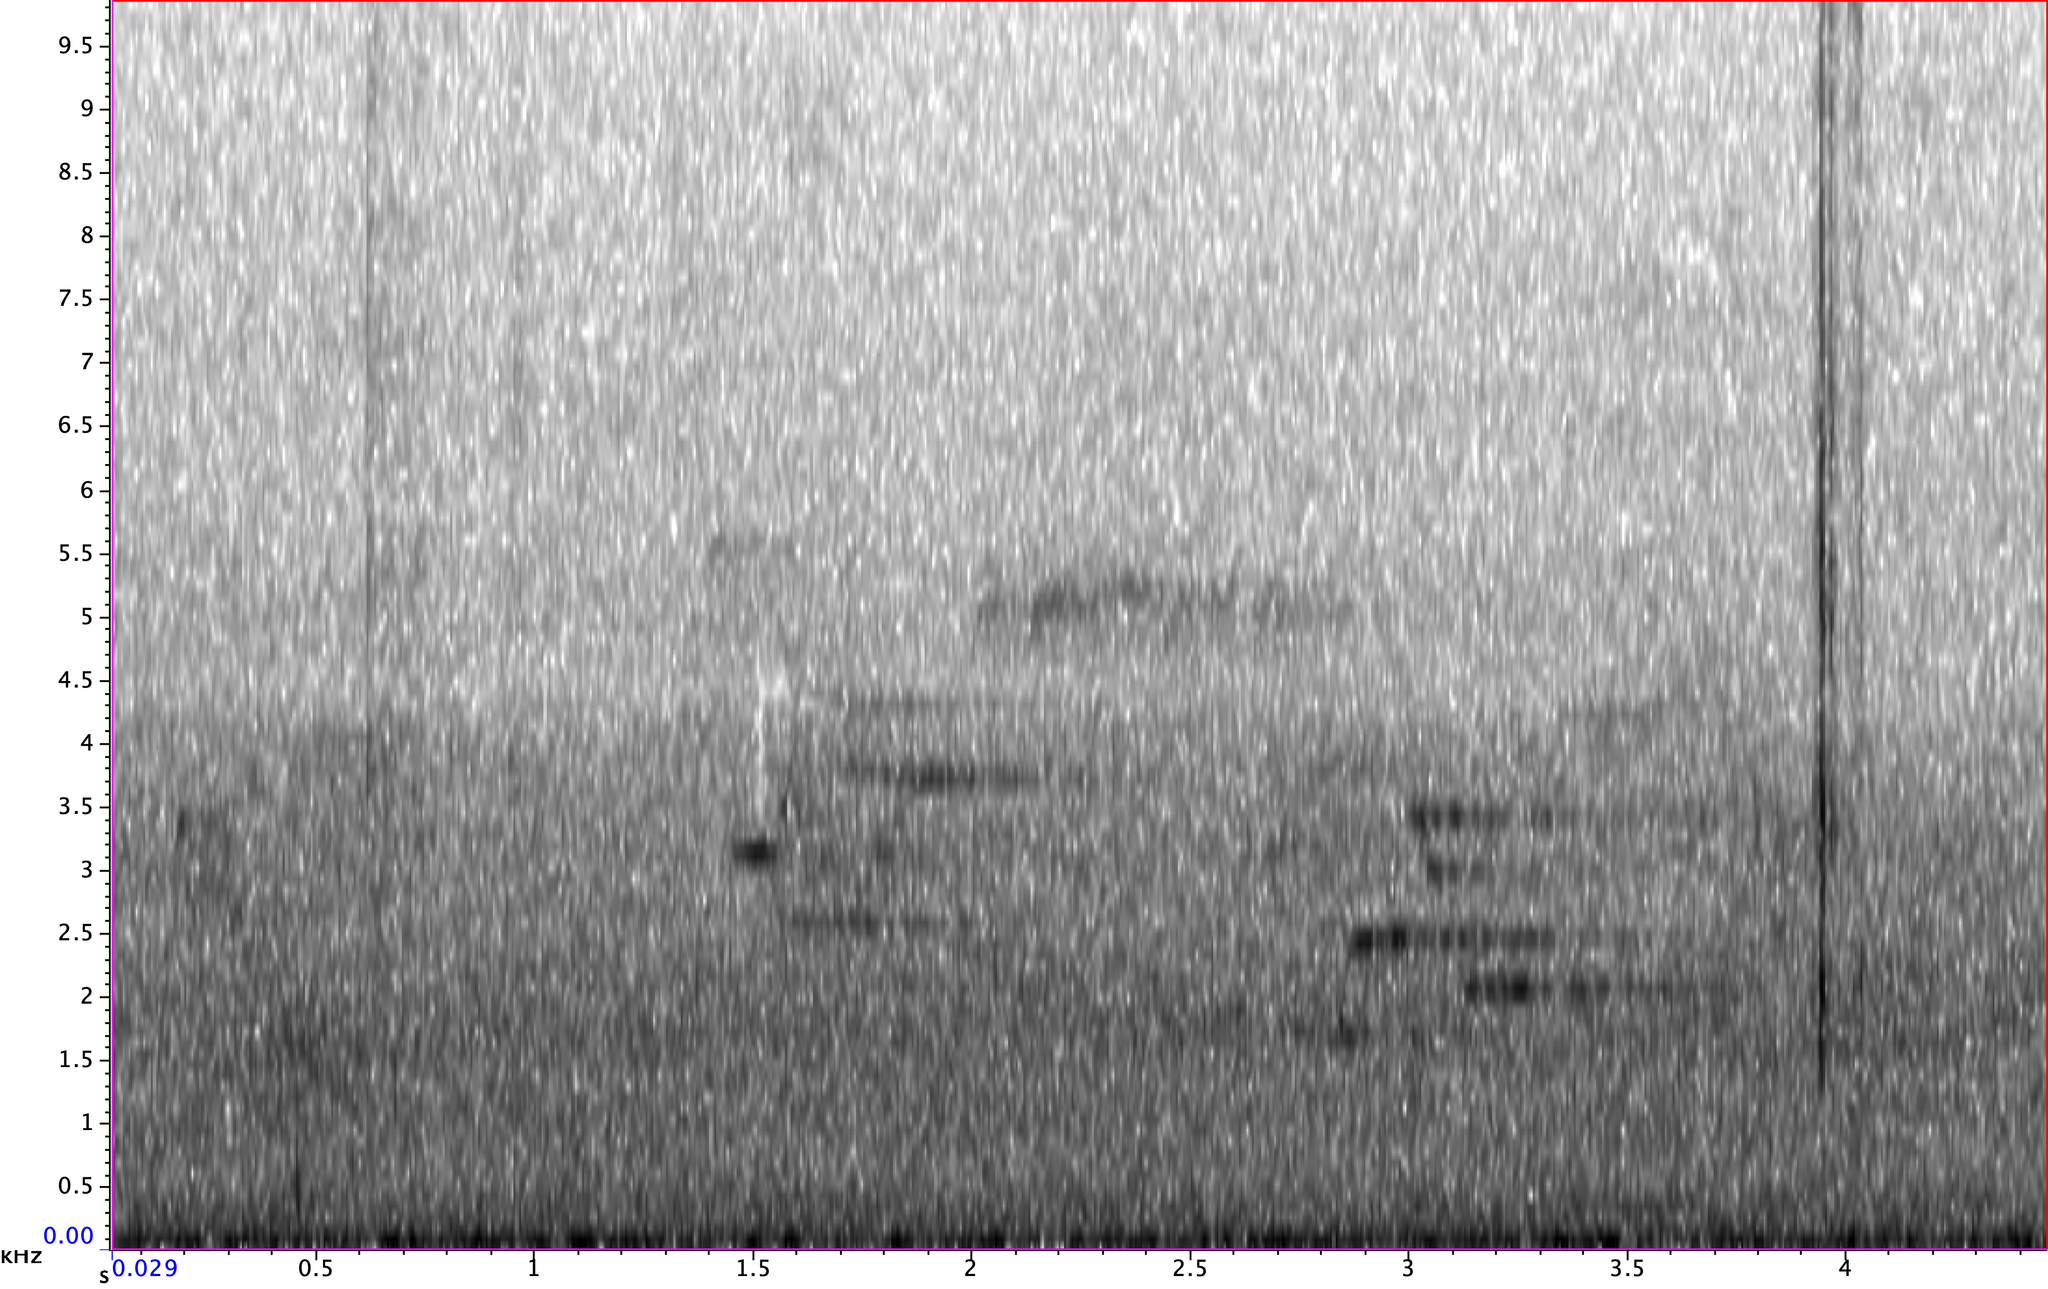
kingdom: Animalia
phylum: Chordata
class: Aves
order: Passeriformes
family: Turdidae
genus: Hylocichla
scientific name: Hylocichla mustelina
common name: Wood thrush
